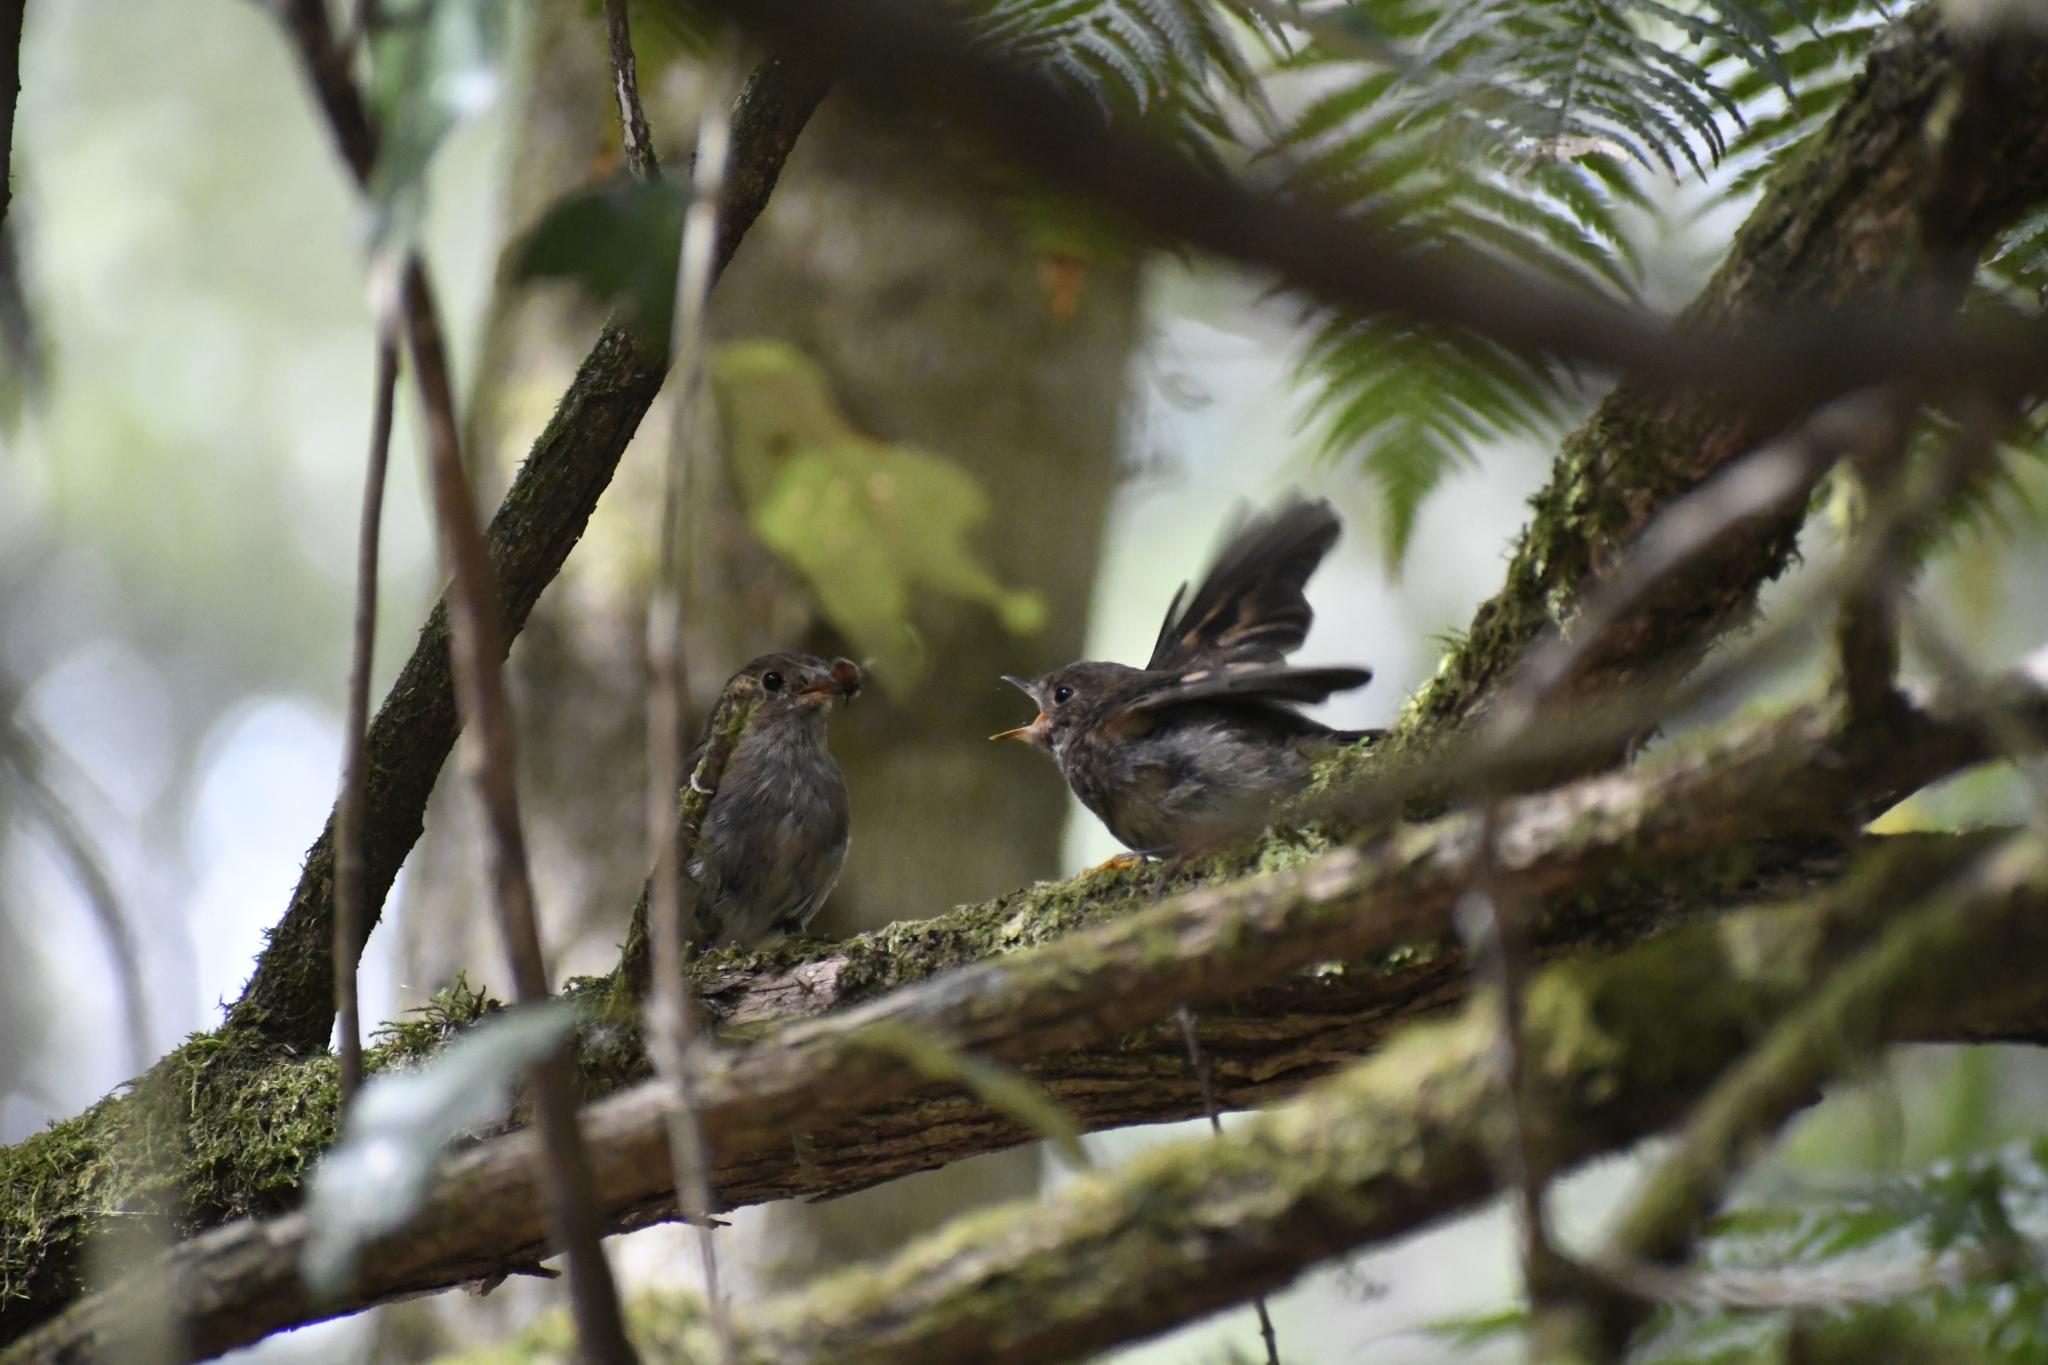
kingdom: Animalia
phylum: Chordata
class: Aves
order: Passeriformes
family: Petroicidae
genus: Petroica
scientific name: Petroica rodinogaster
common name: Pink robin
